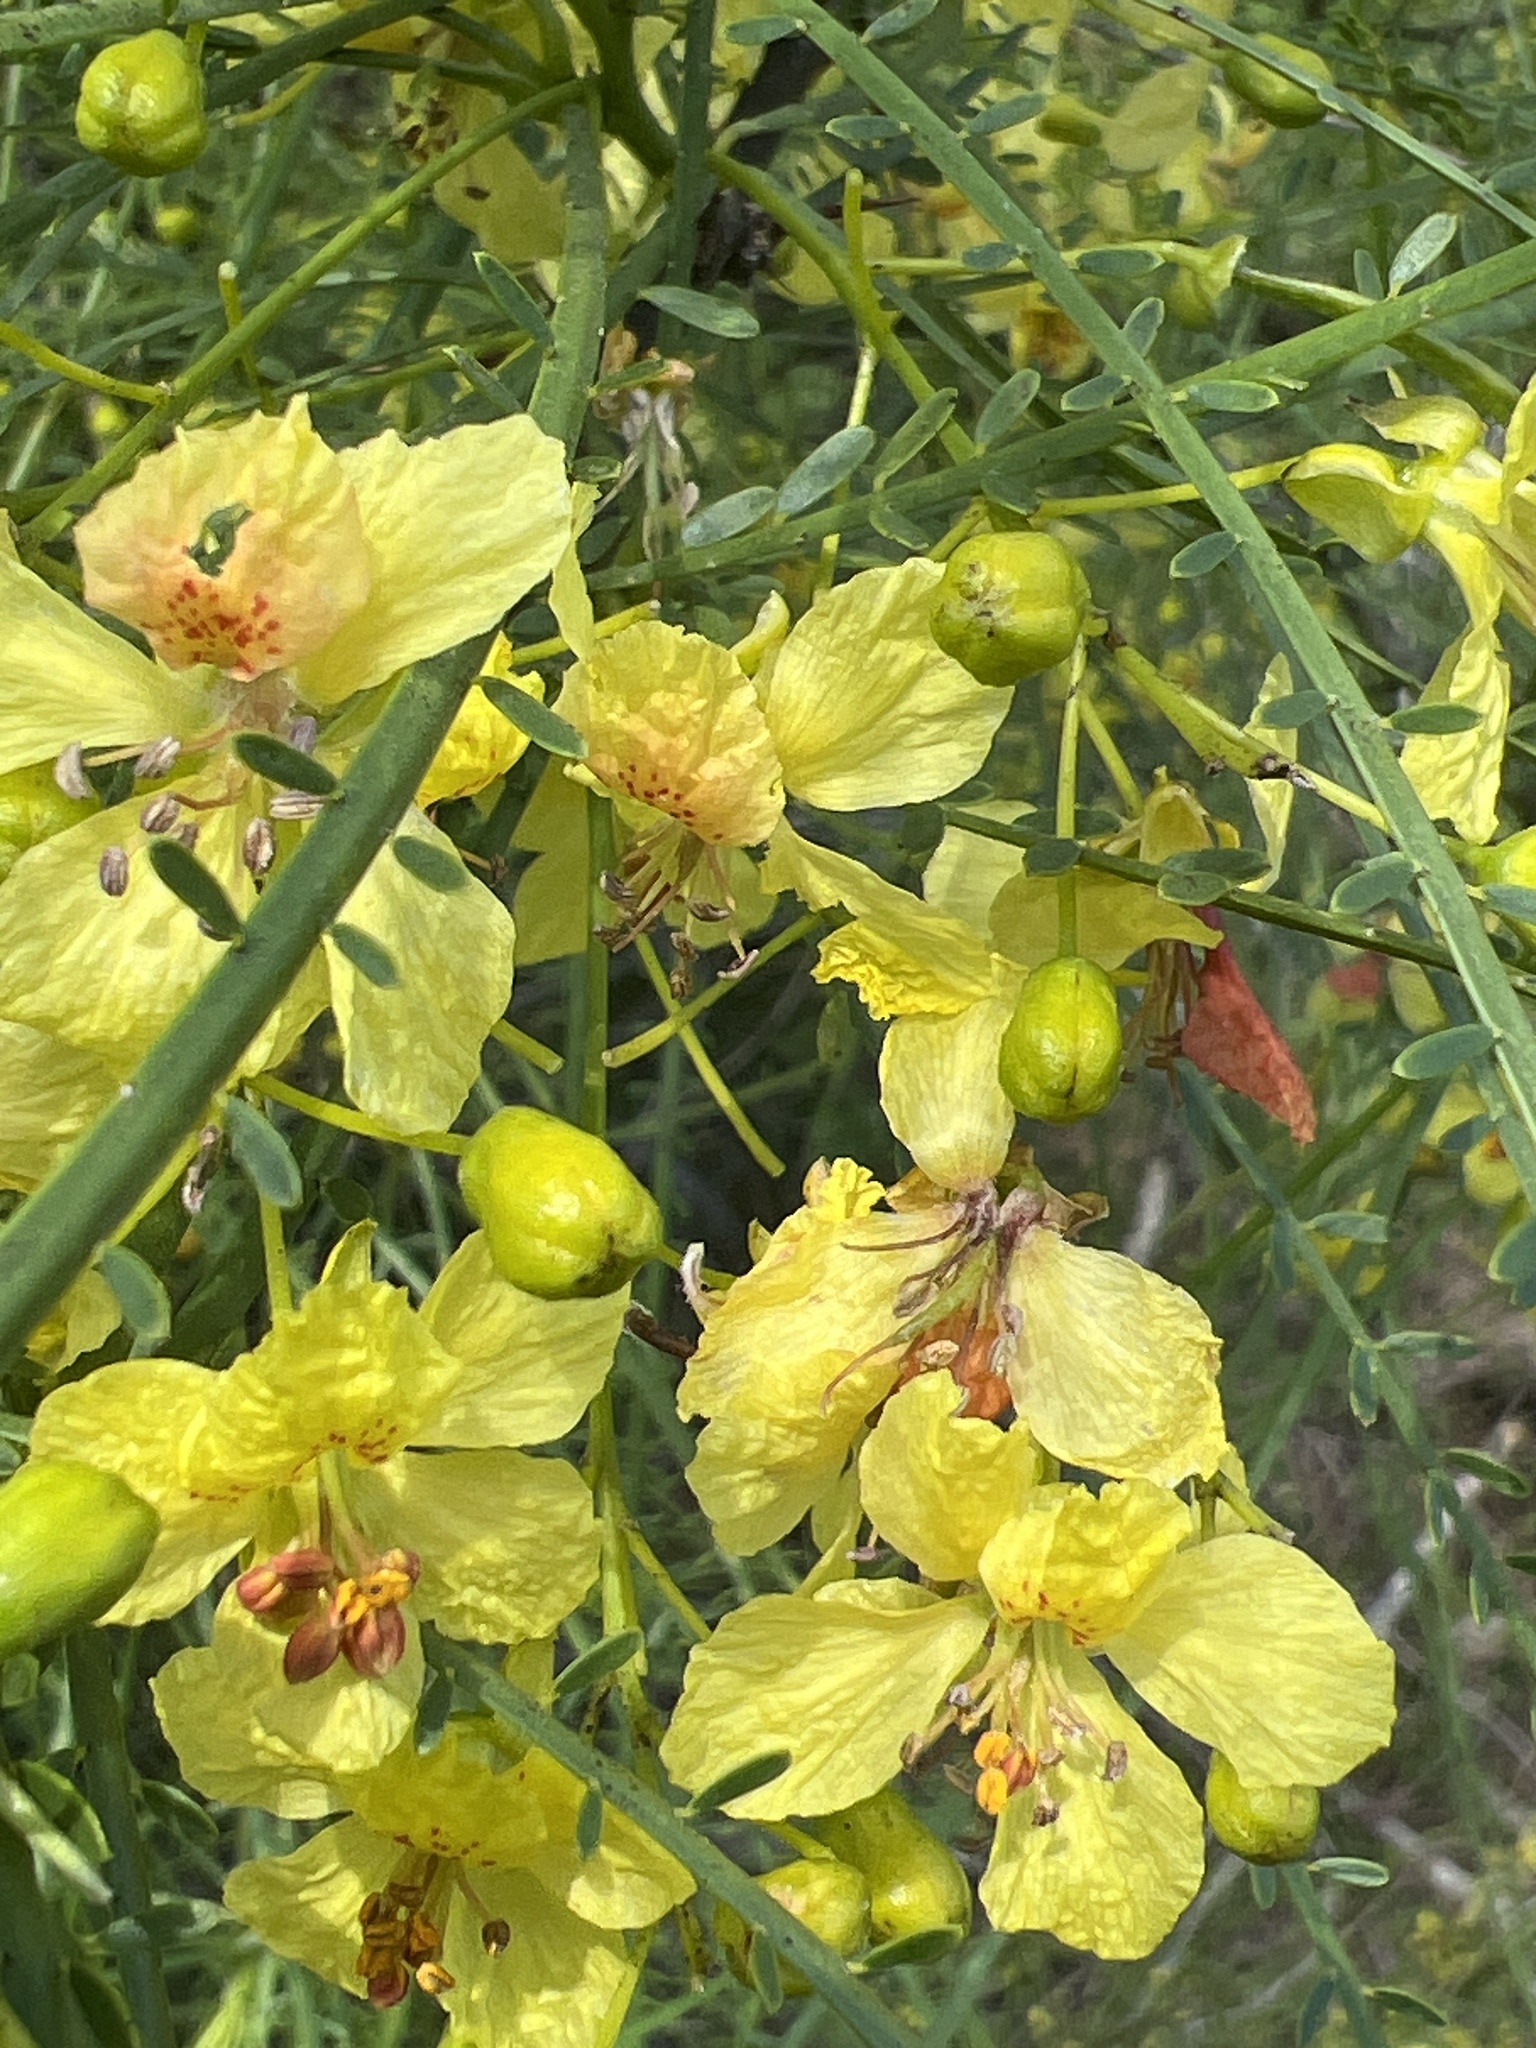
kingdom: Plantae
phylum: Tracheophyta
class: Magnoliopsida
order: Fabales
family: Fabaceae
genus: Parkinsonia
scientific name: Parkinsonia aculeata
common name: Jerusalem thorn
